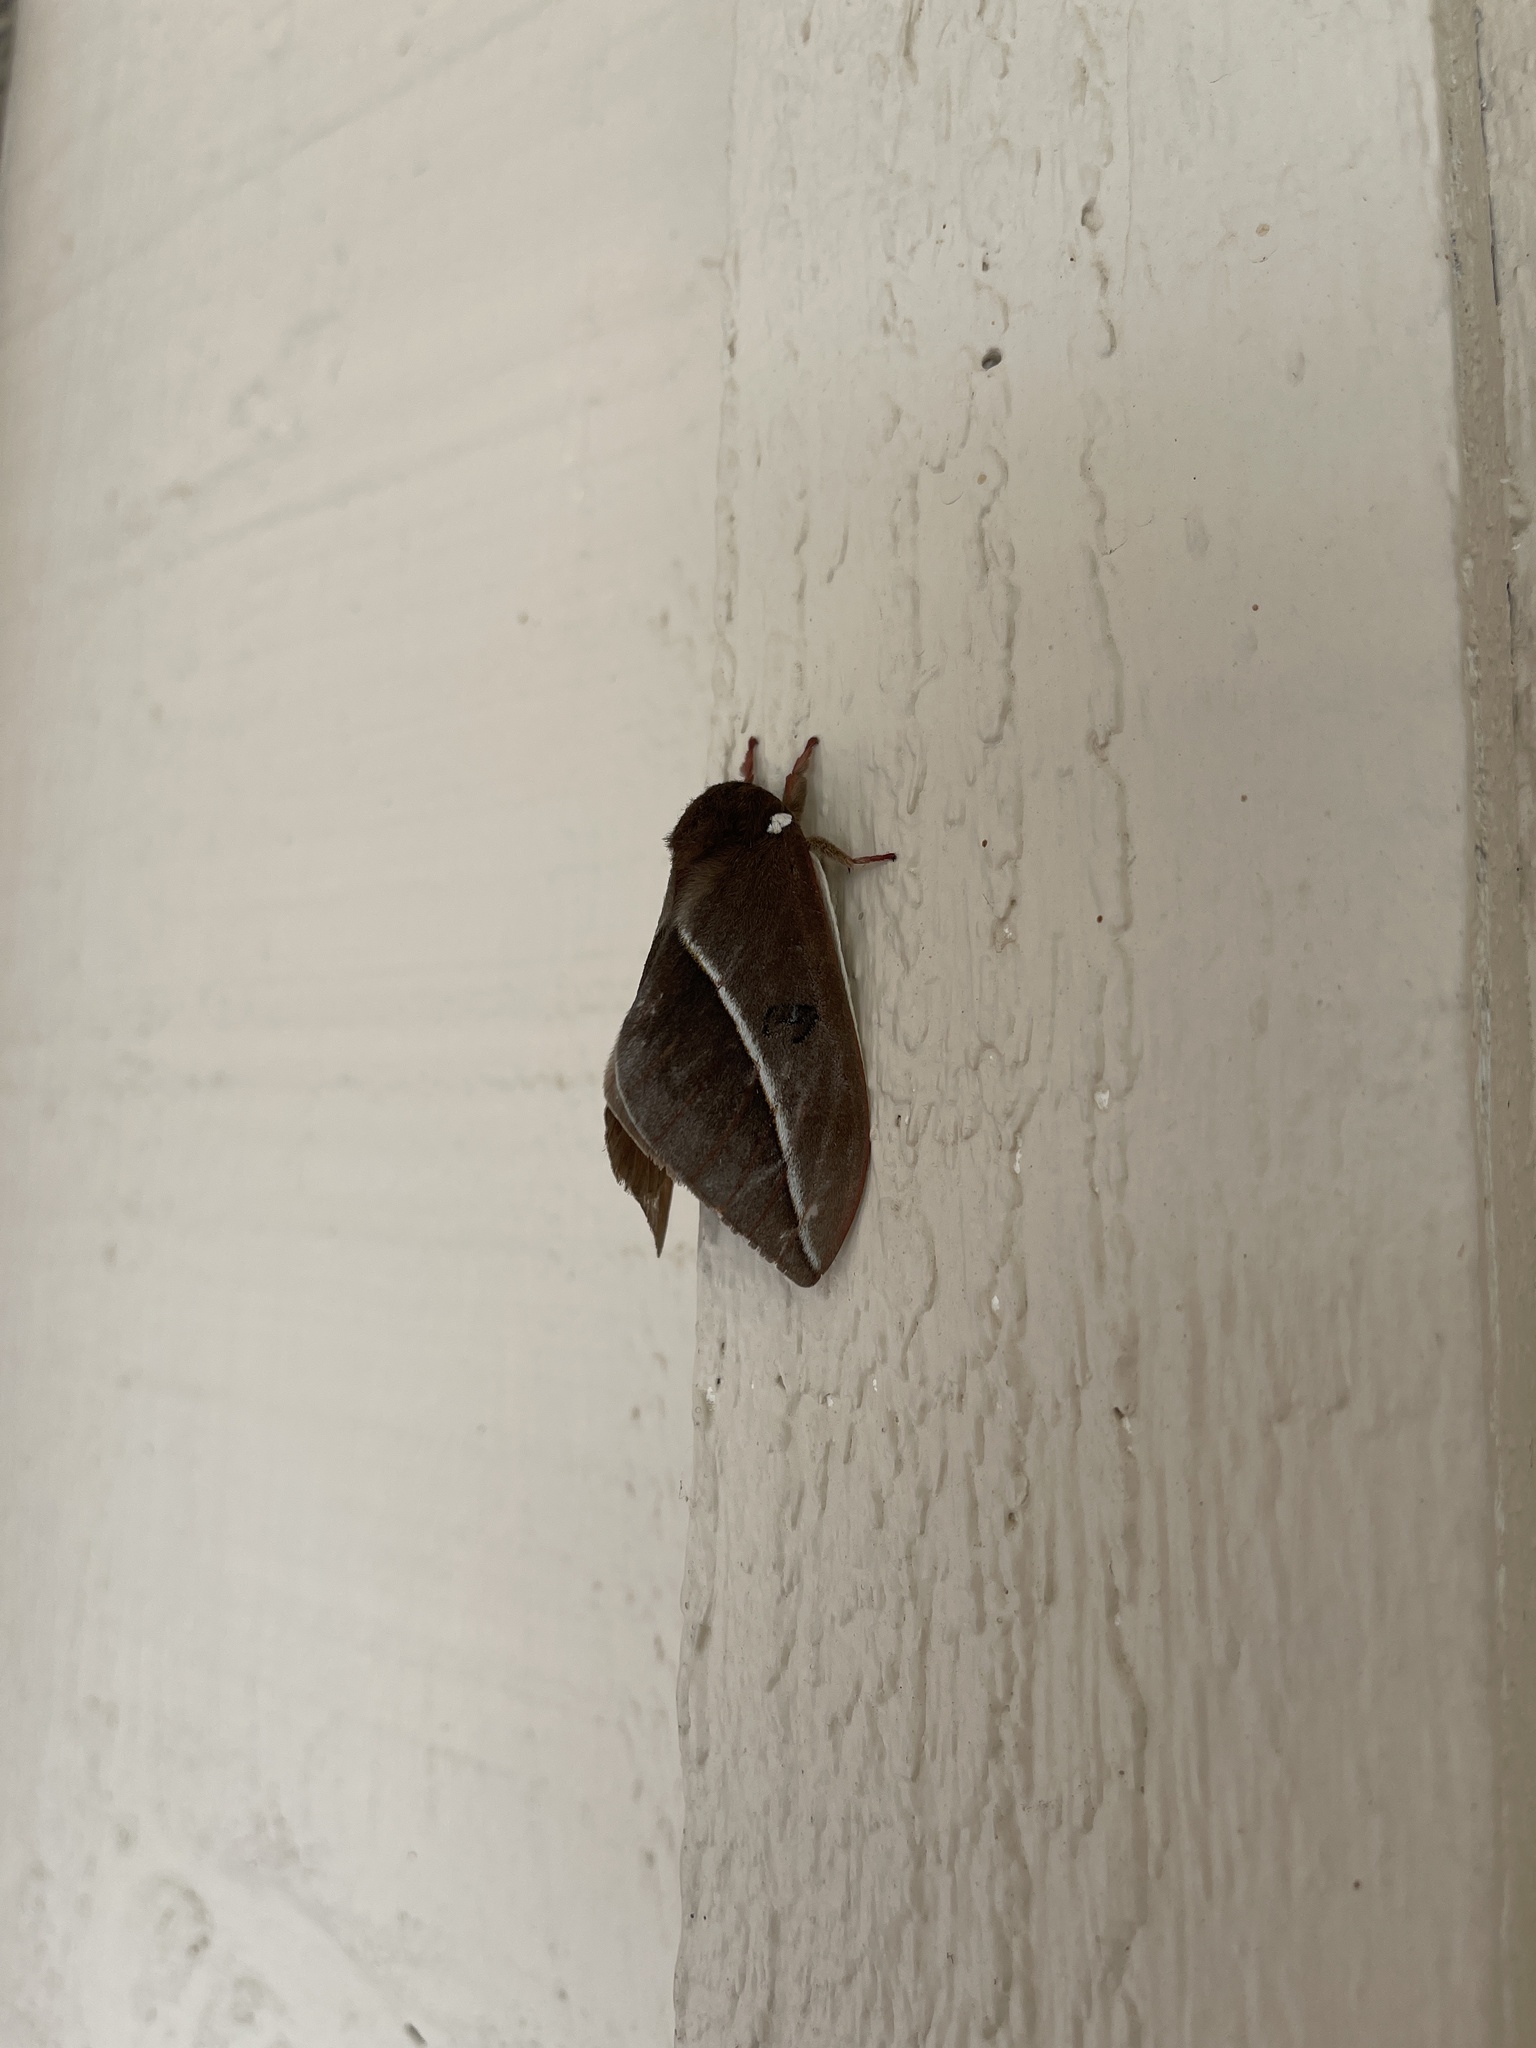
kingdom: Animalia
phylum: Arthropoda
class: Insecta
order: Lepidoptera
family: Saturniidae
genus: Automeris
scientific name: Automeris zephyria
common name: Zephyr eyed silkmoth
